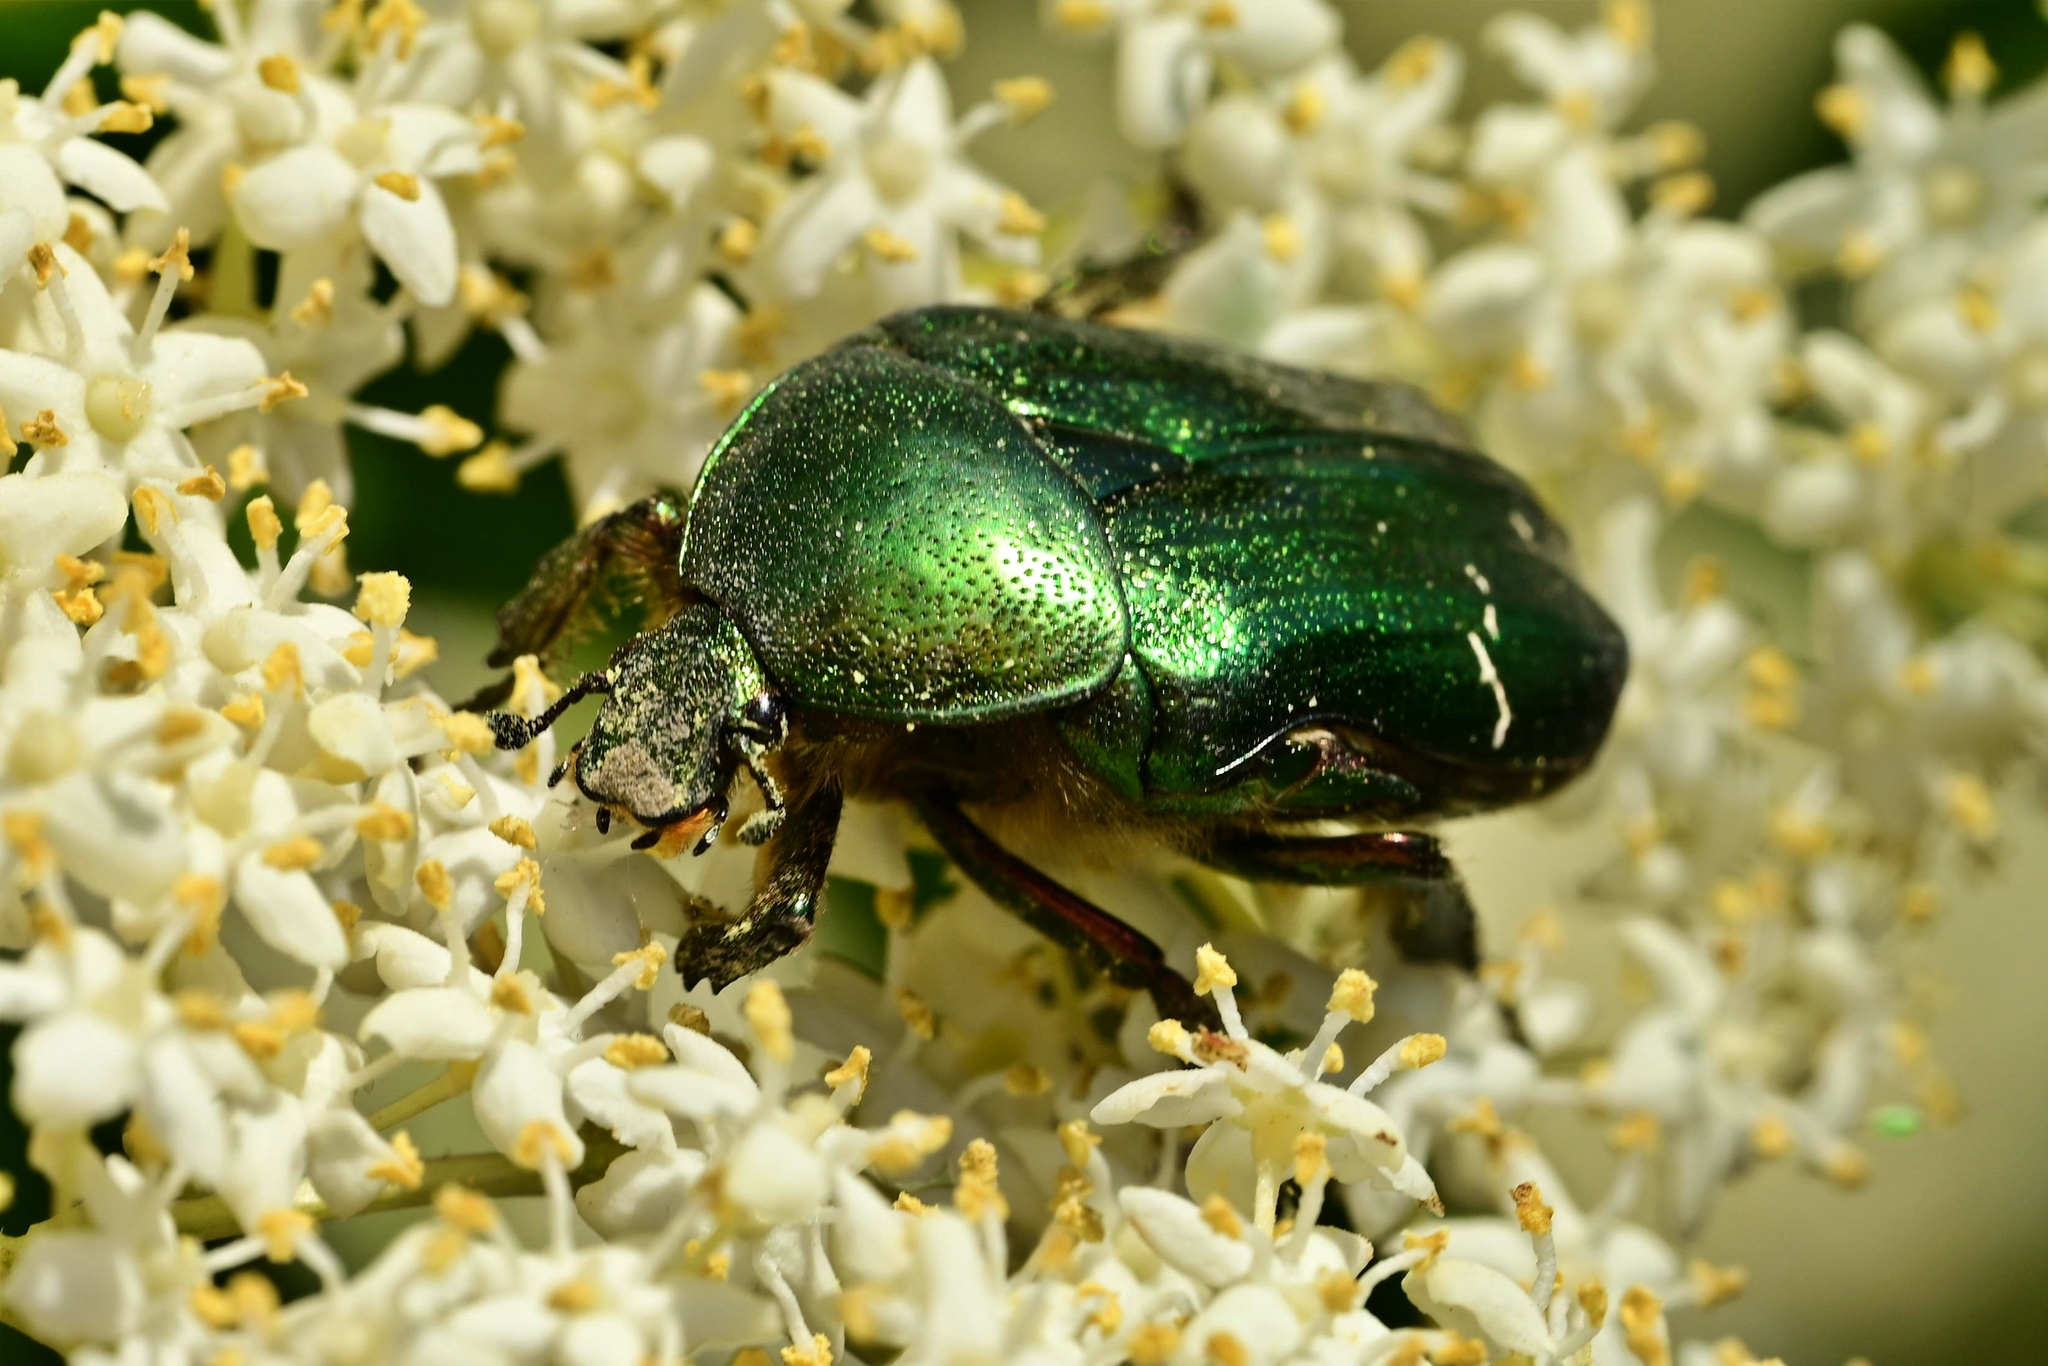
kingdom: Animalia
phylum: Arthropoda
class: Insecta
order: Coleoptera
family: Scarabaeidae
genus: Cetonia
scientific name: Cetonia aurata
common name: Rose chafer
